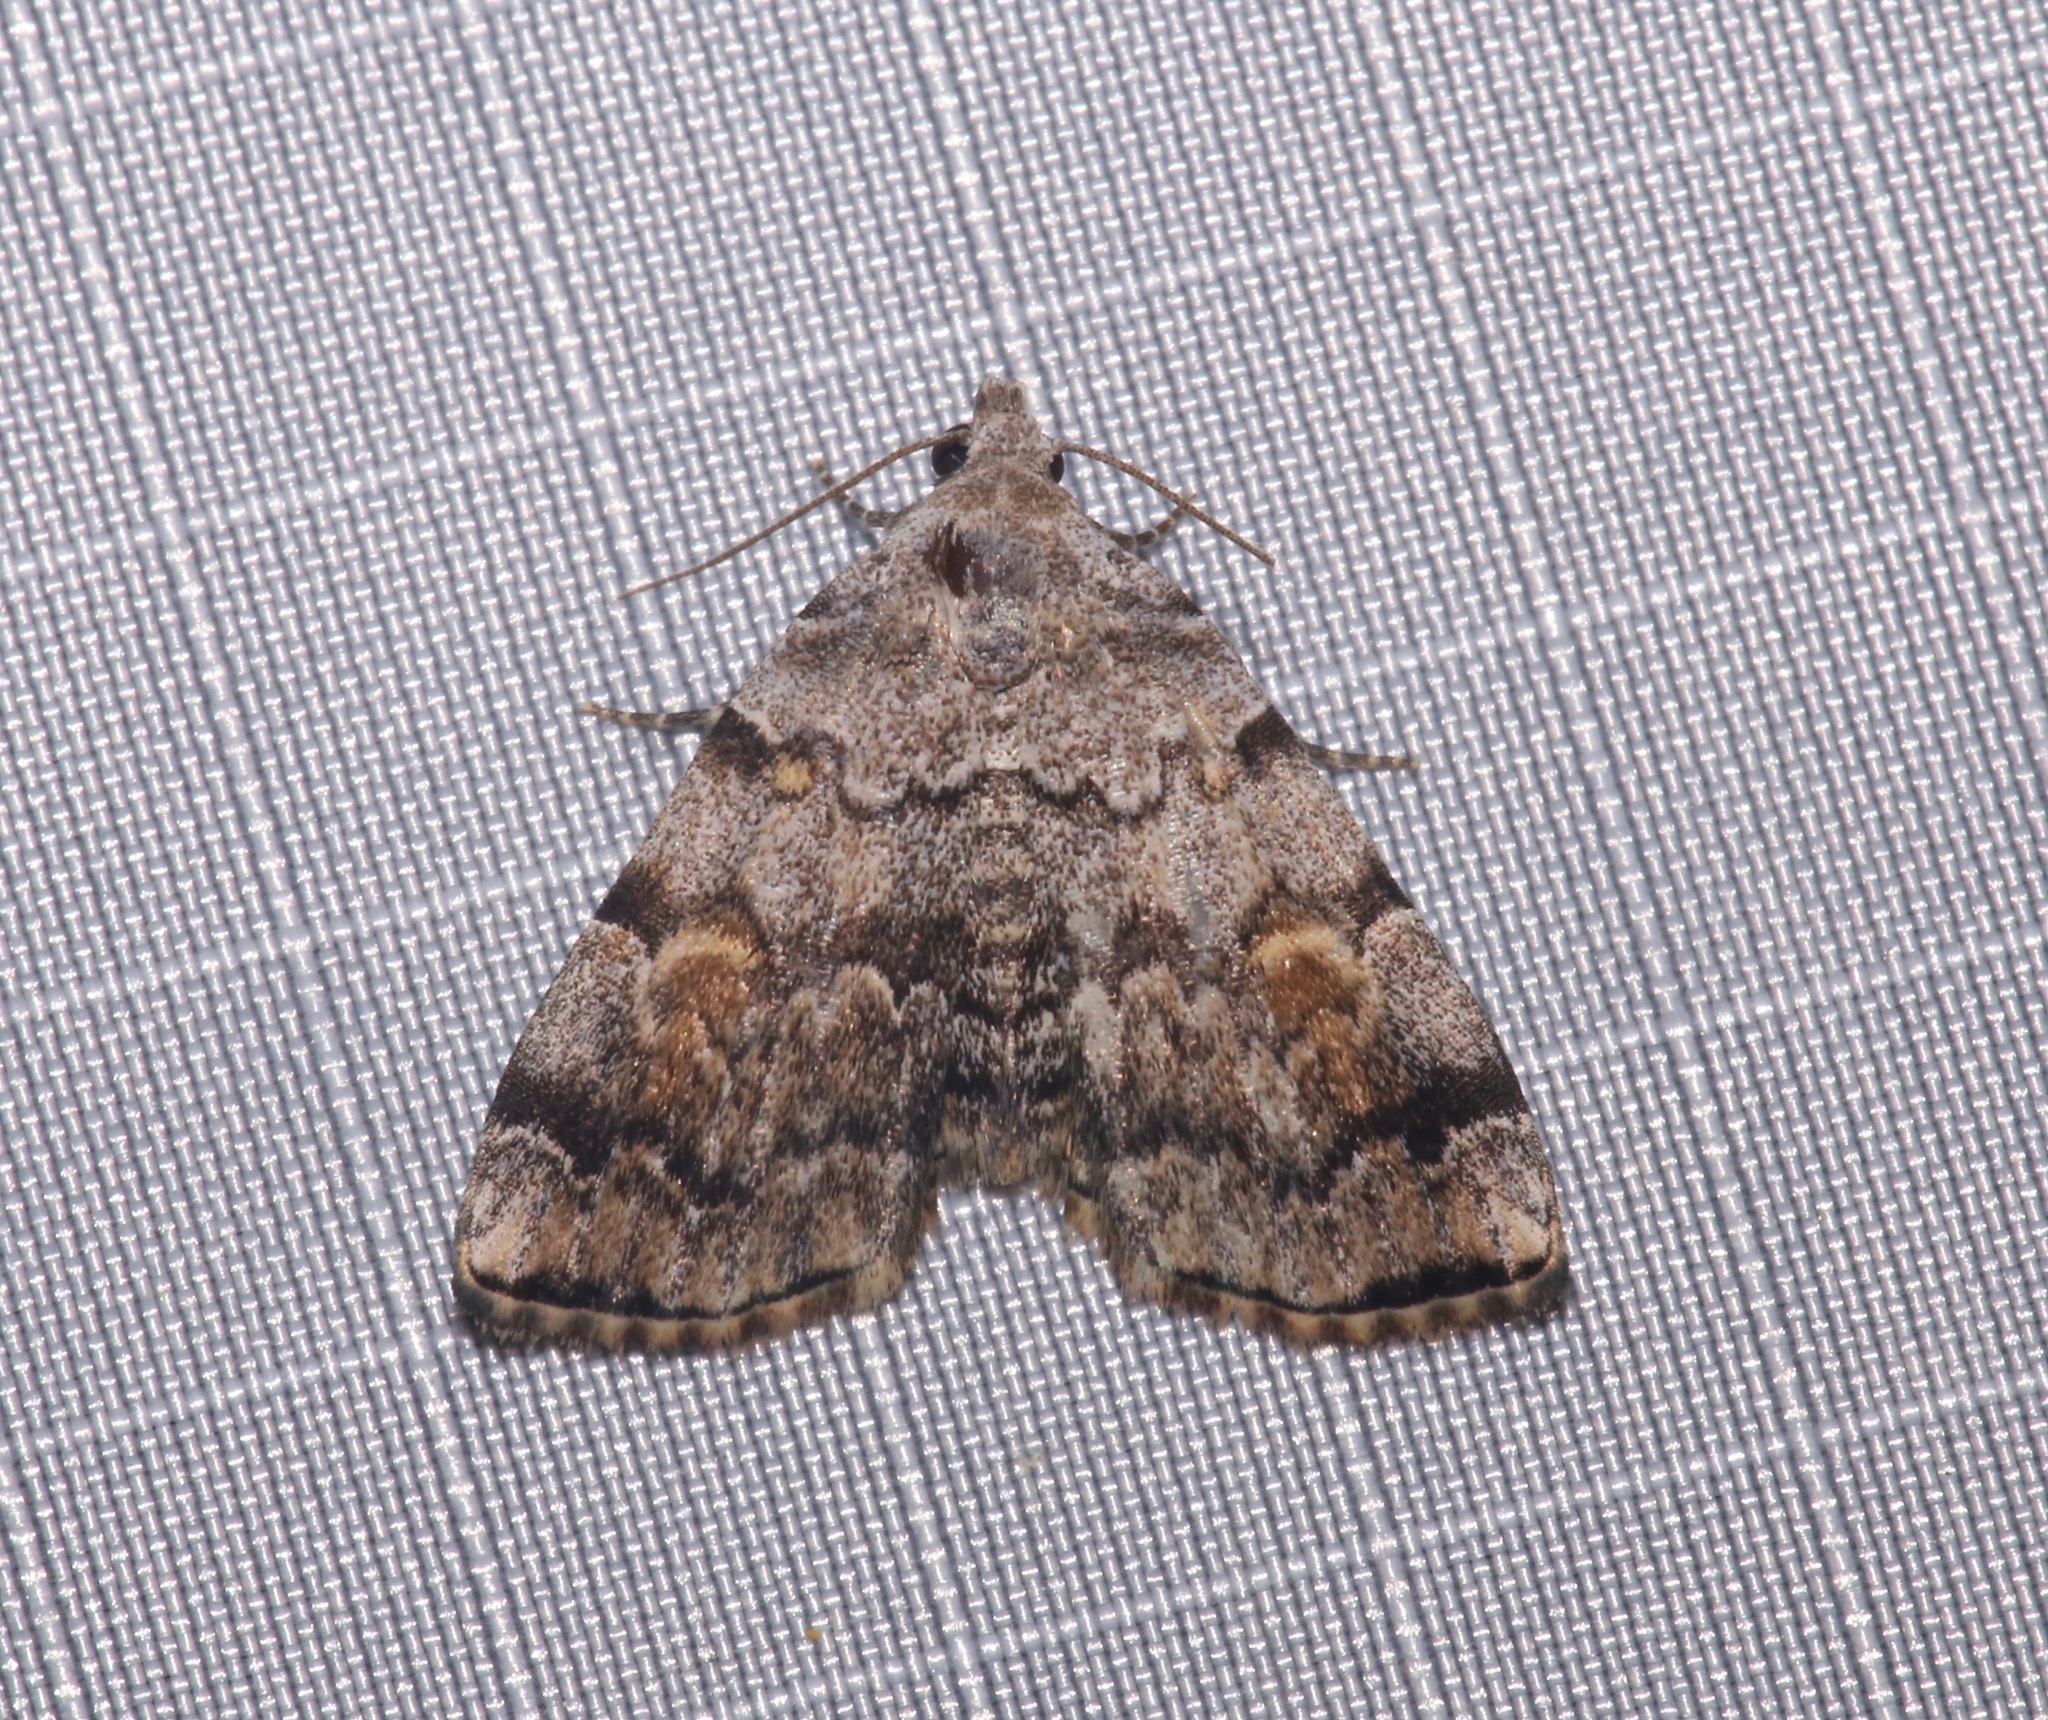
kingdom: Animalia
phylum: Arthropoda
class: Insecta
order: Lepidoptera
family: Erebidae
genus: Idia
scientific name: Idia americalis
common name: American idia moth
